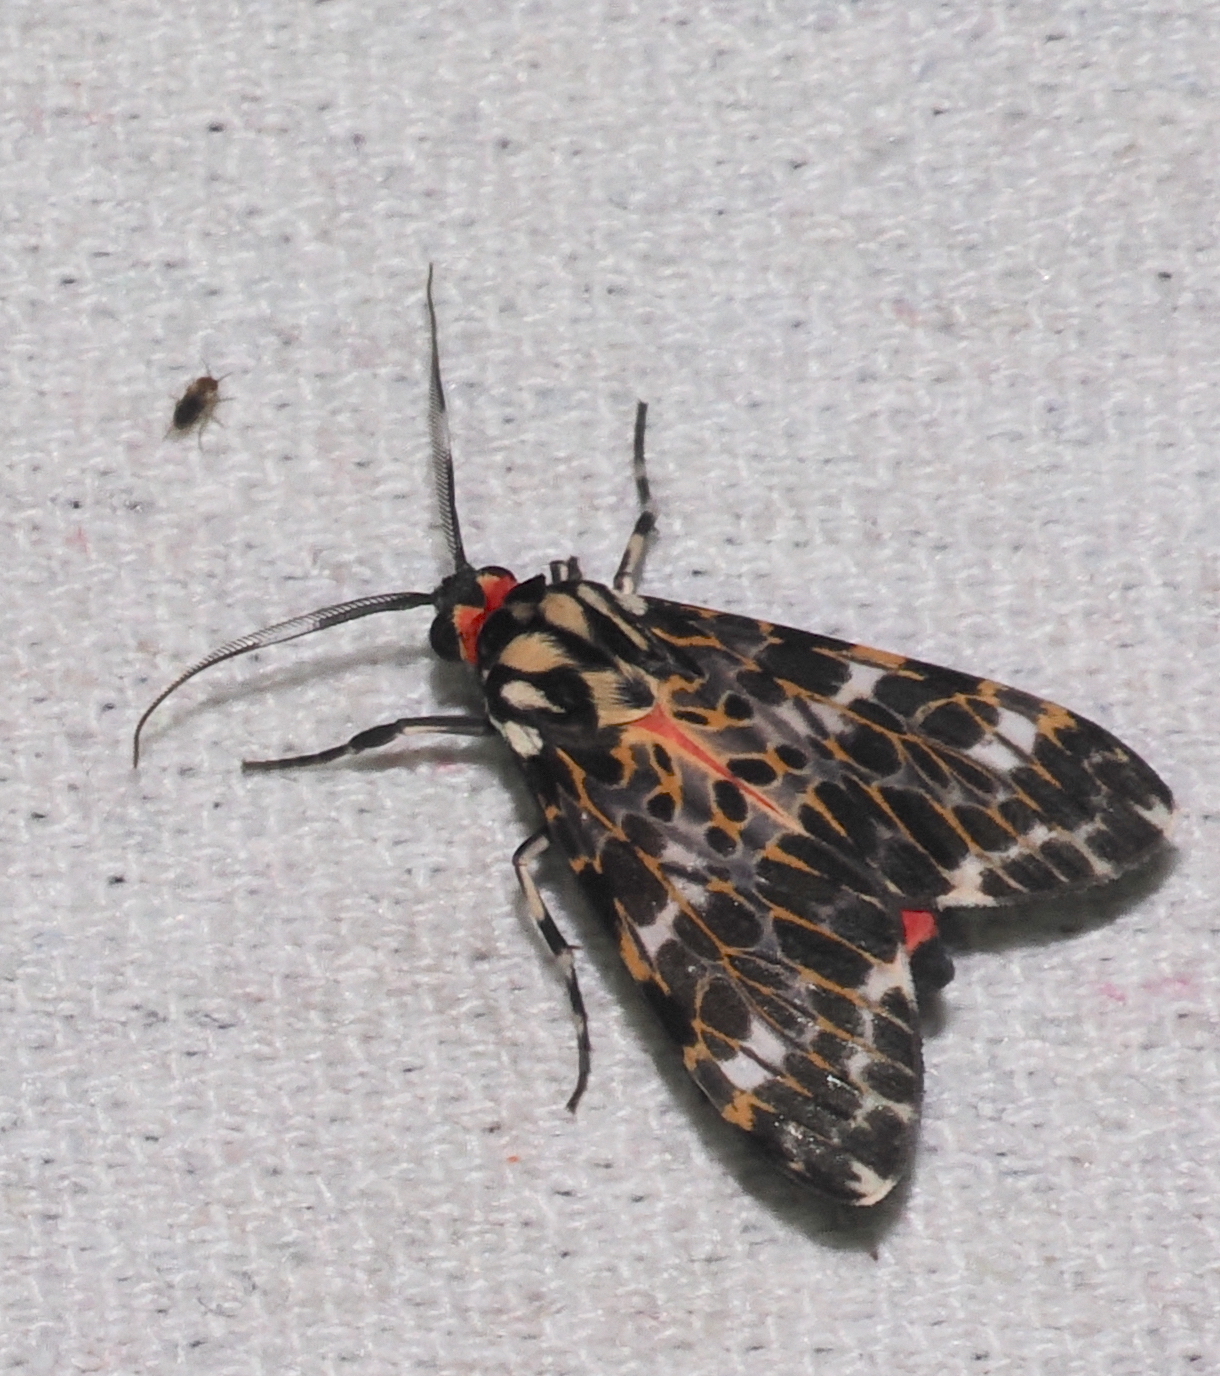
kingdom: Animalia
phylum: Arthropoda
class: Insecta
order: Lepidoptera
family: Erebidae
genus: Eucereon
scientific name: Eucereon tarona
